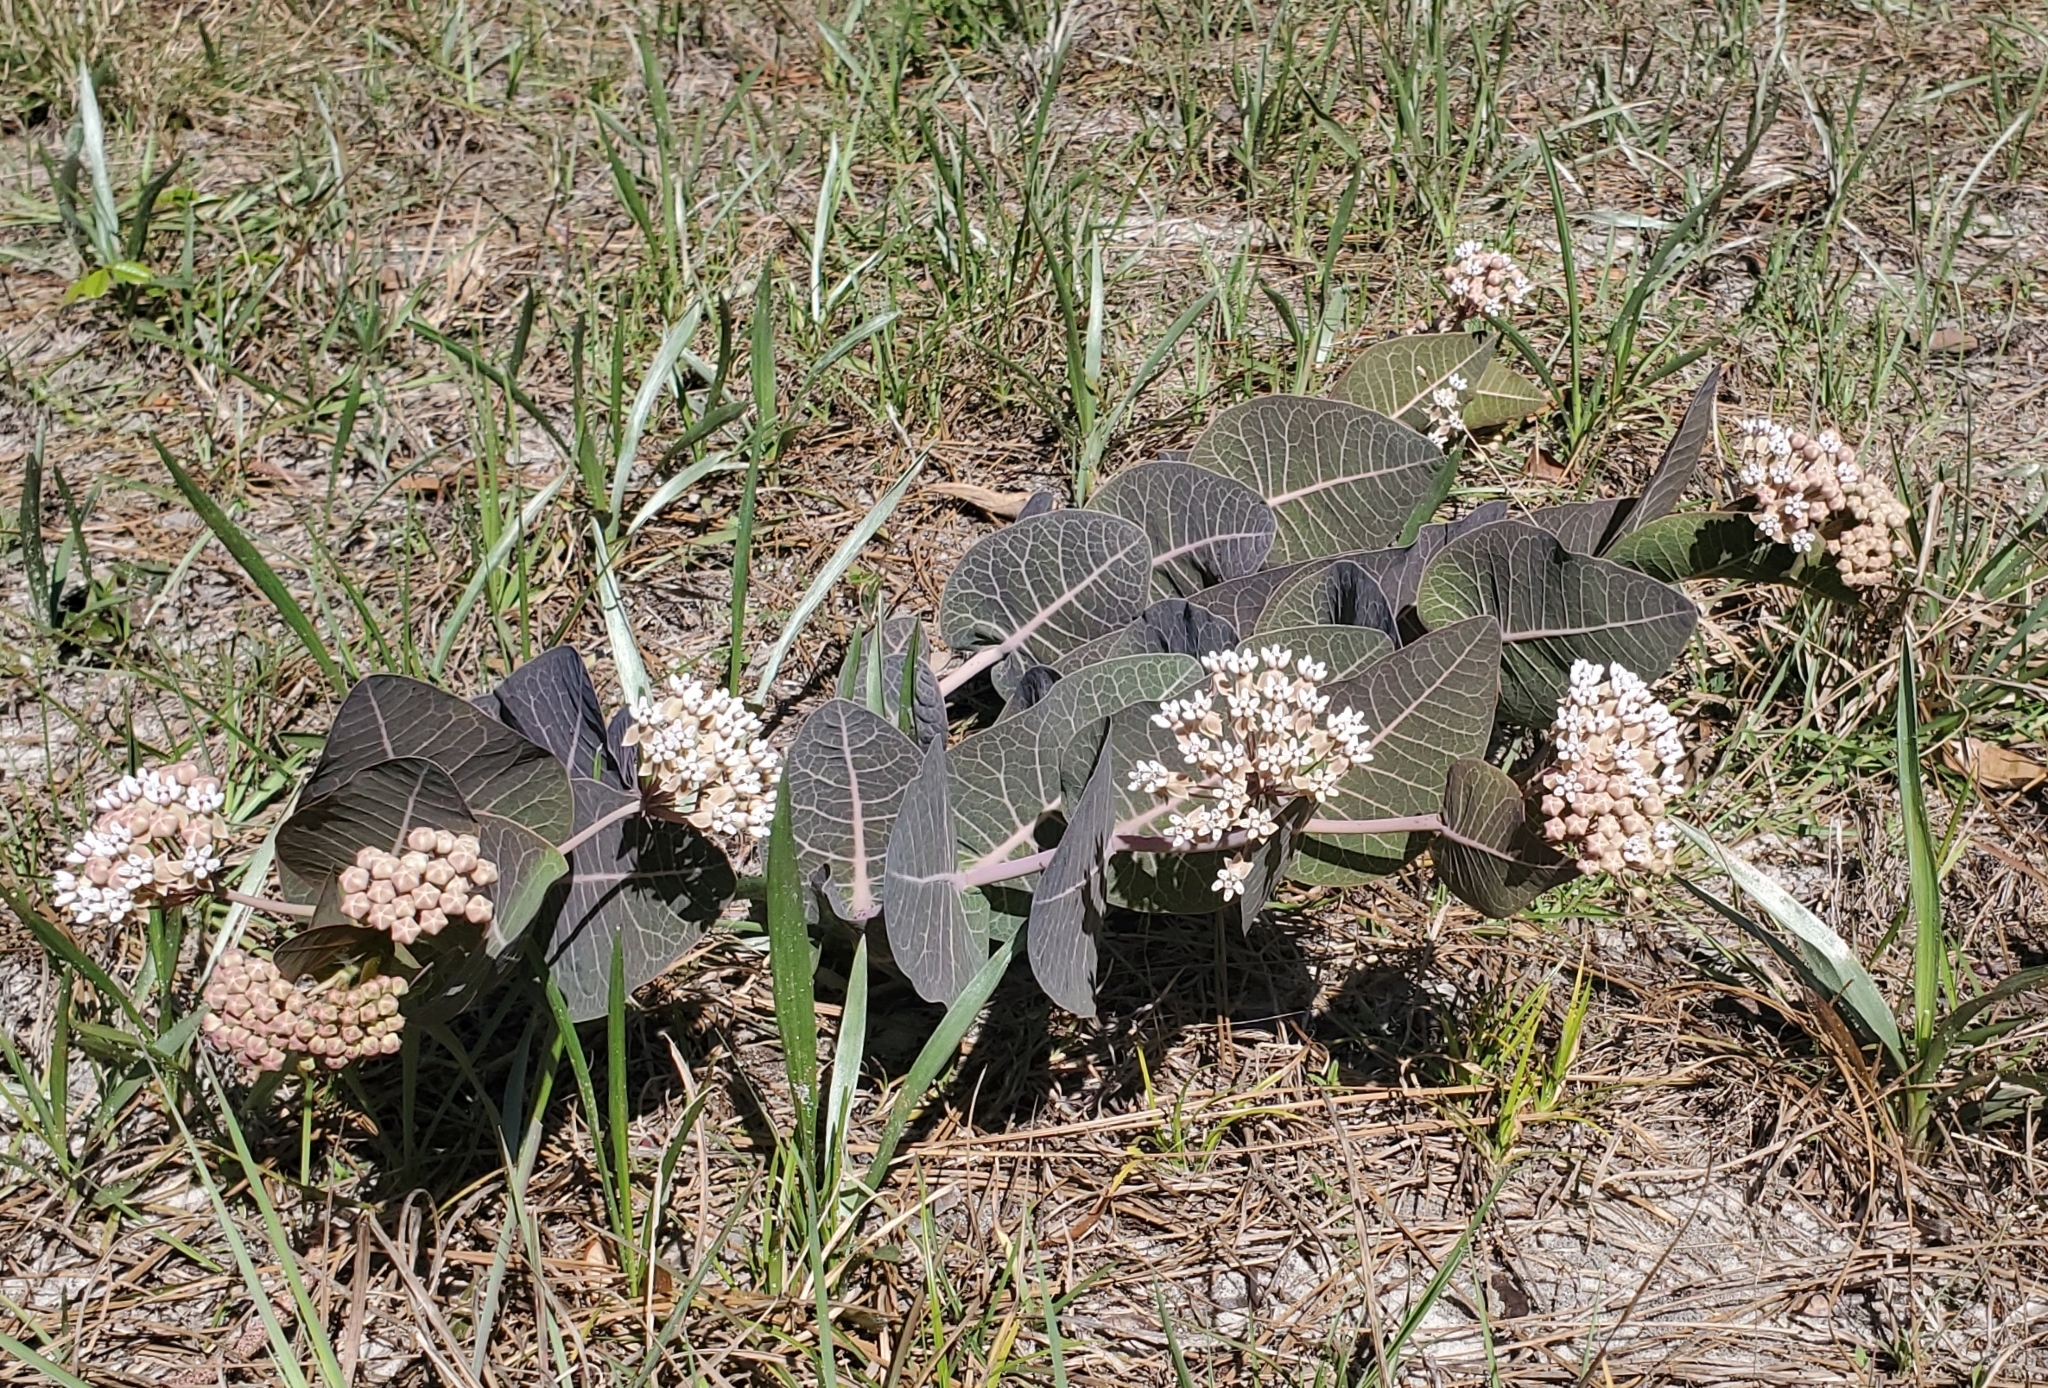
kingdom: Plantae
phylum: Tracheophyta
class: Magnoliopsida
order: Gentianales
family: Apocynaceae
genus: Asclepias
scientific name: Asclepias humistrata
